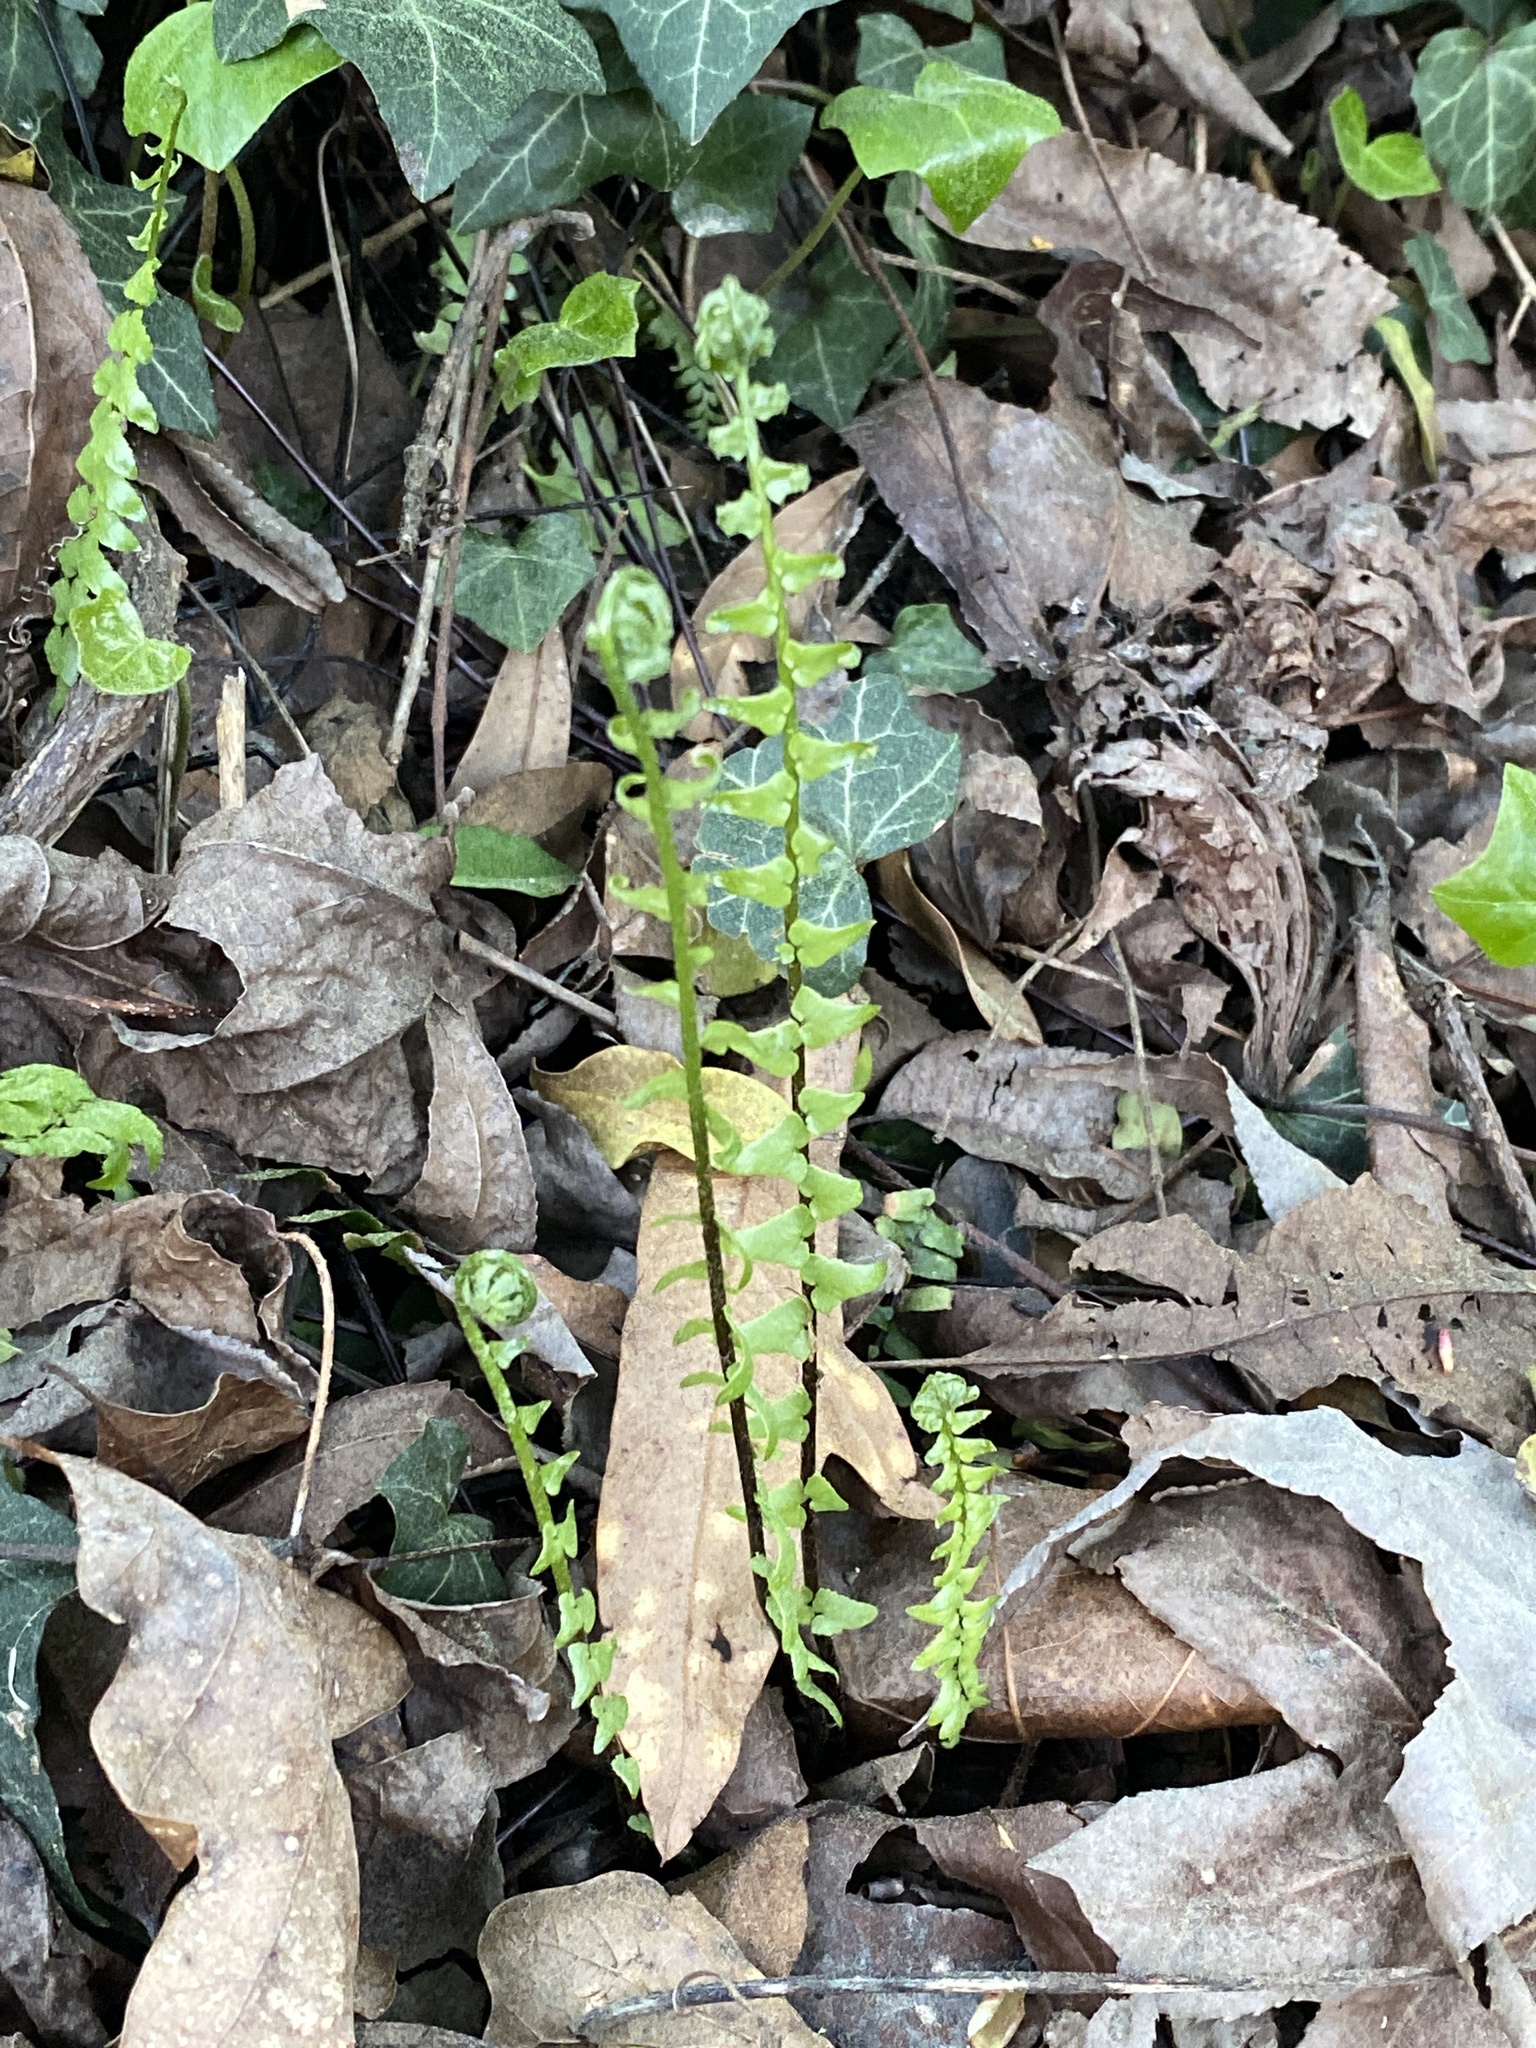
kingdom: Plantae
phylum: Tracheophyta
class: Polypodiopsida
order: Polypodiales
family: Aspleniaceae
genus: Asplenium
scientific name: Asplenium platyneuron
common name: Ebony spleenwort
